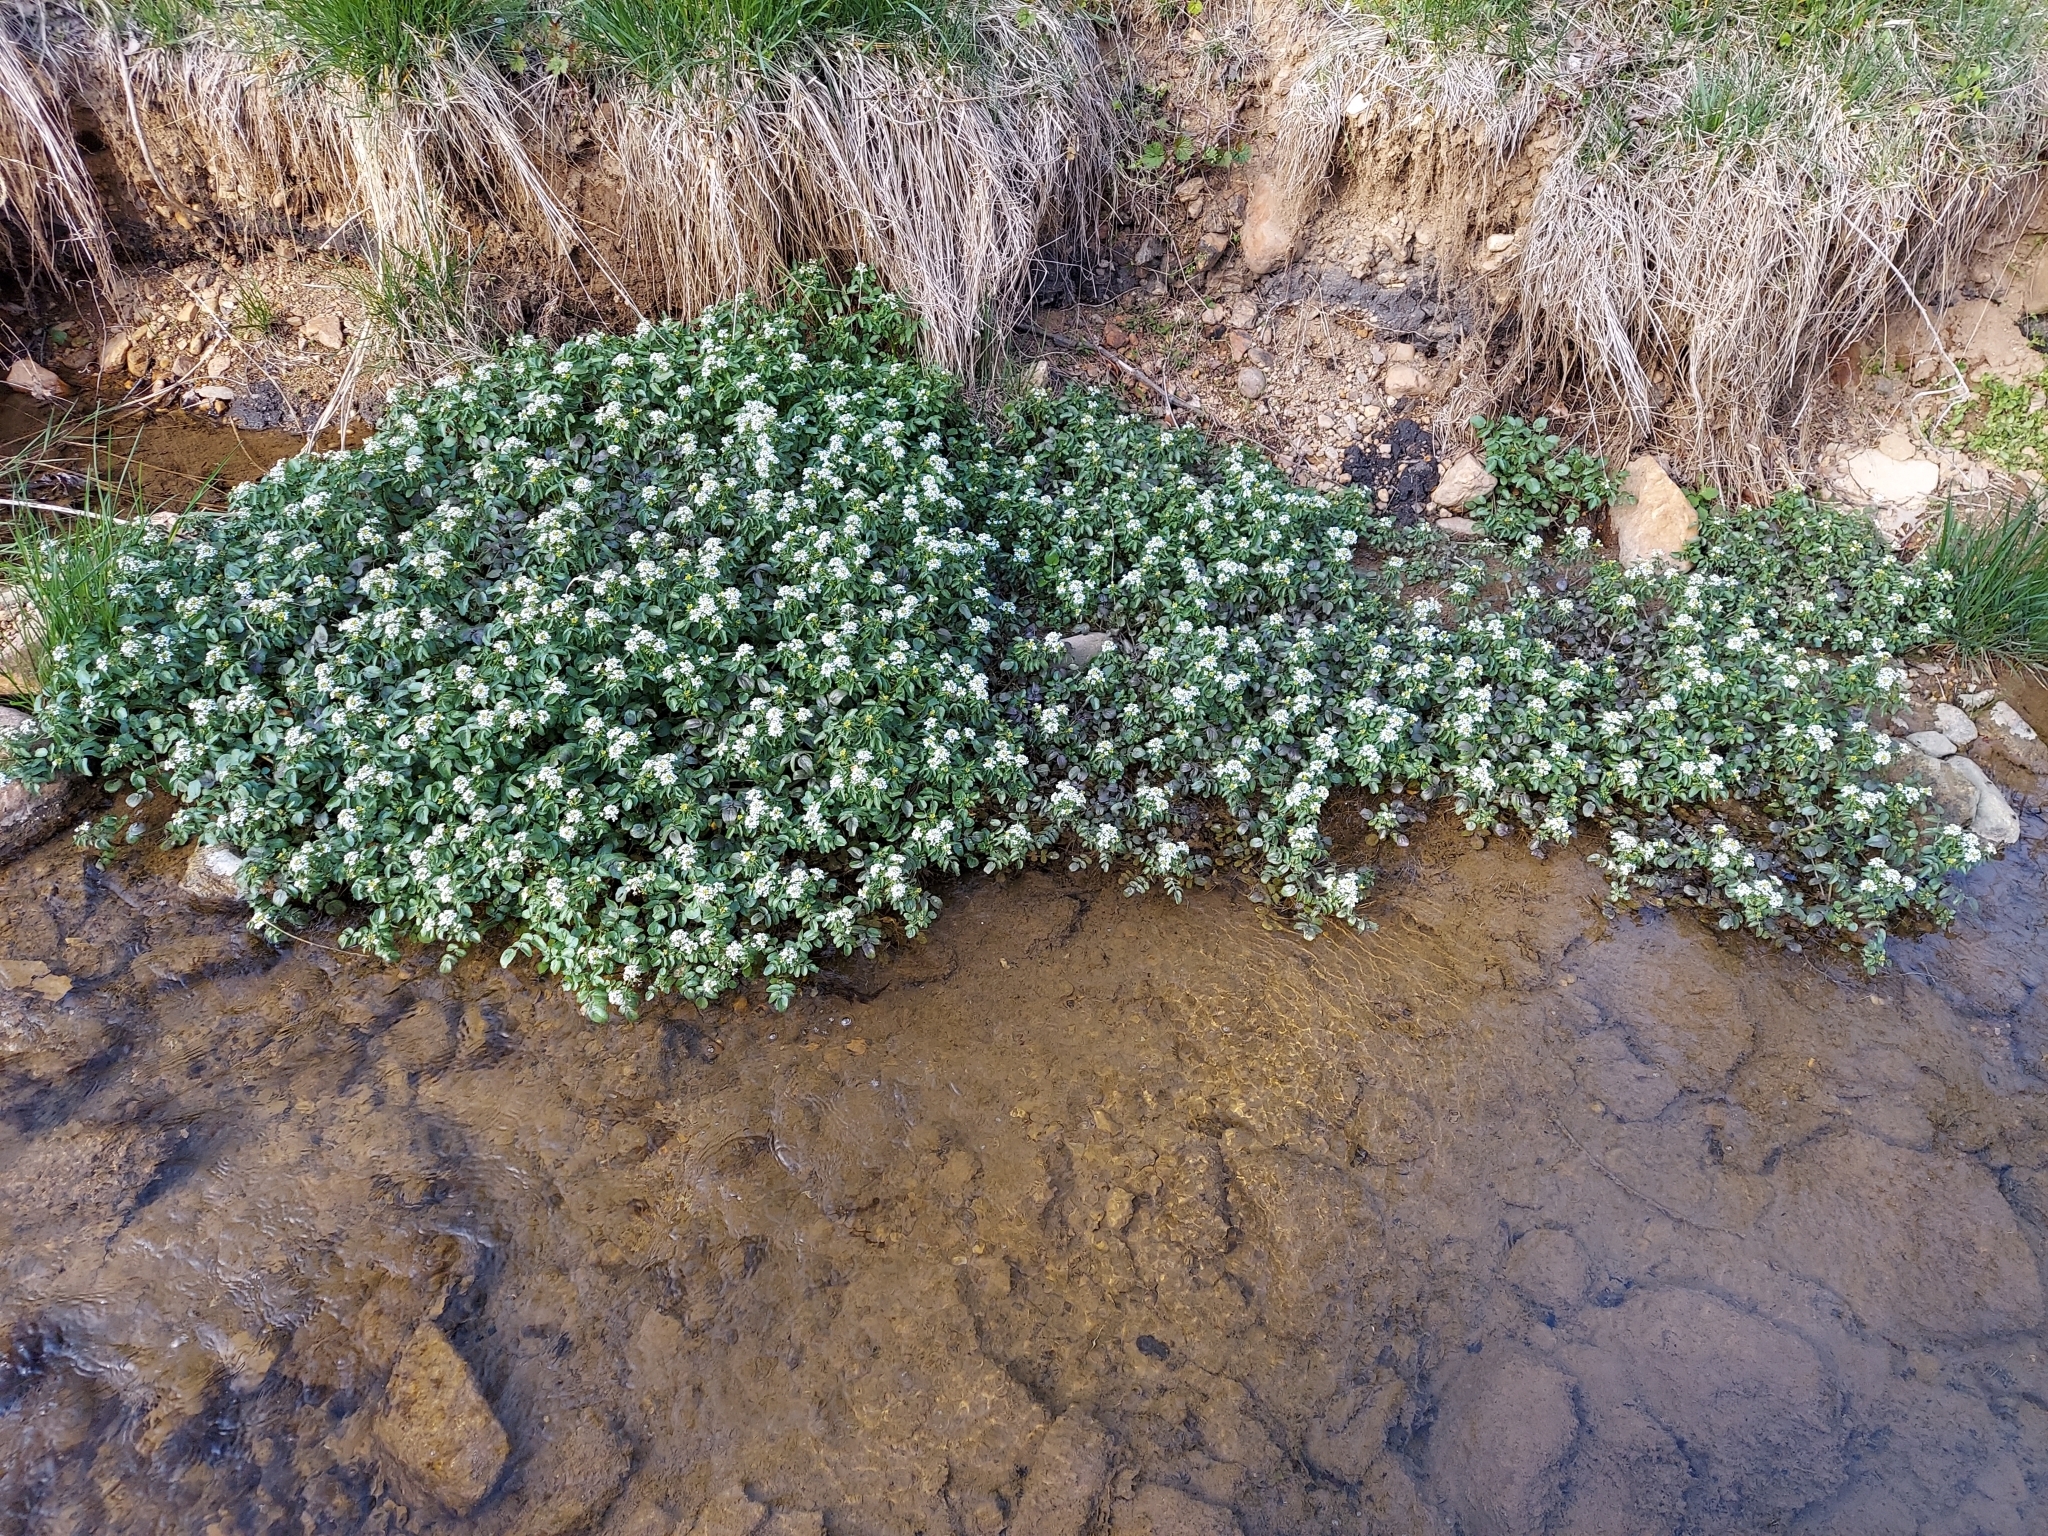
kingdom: Plantae
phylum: Tracheophyta
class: Magnoliopsida
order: Brassicales
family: Brassicaceae
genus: Nasturtium
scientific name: Nasturtium officinale
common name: Watercress
